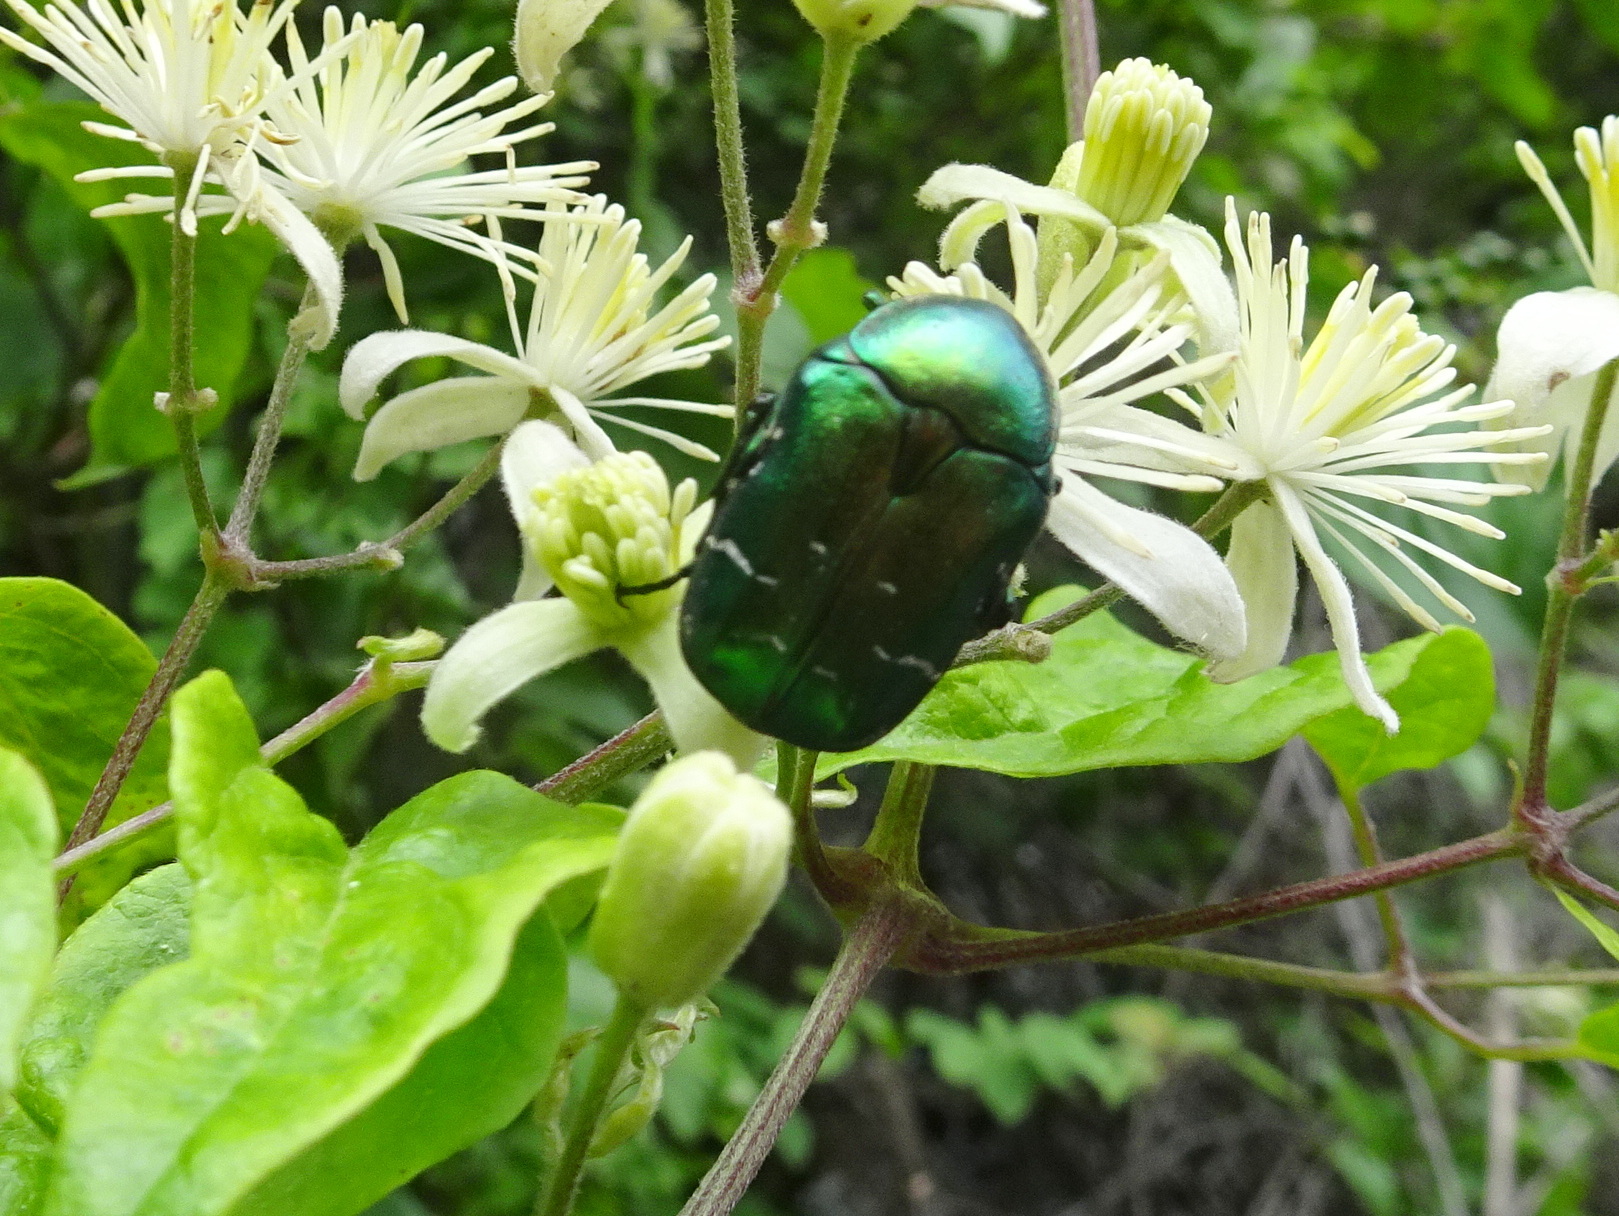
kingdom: Animalia
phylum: Arthropoda
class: Insecta
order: Coleoptera
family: Scarabaeidae
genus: Cetonia
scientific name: Cetonia aurata
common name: Rose chafer
